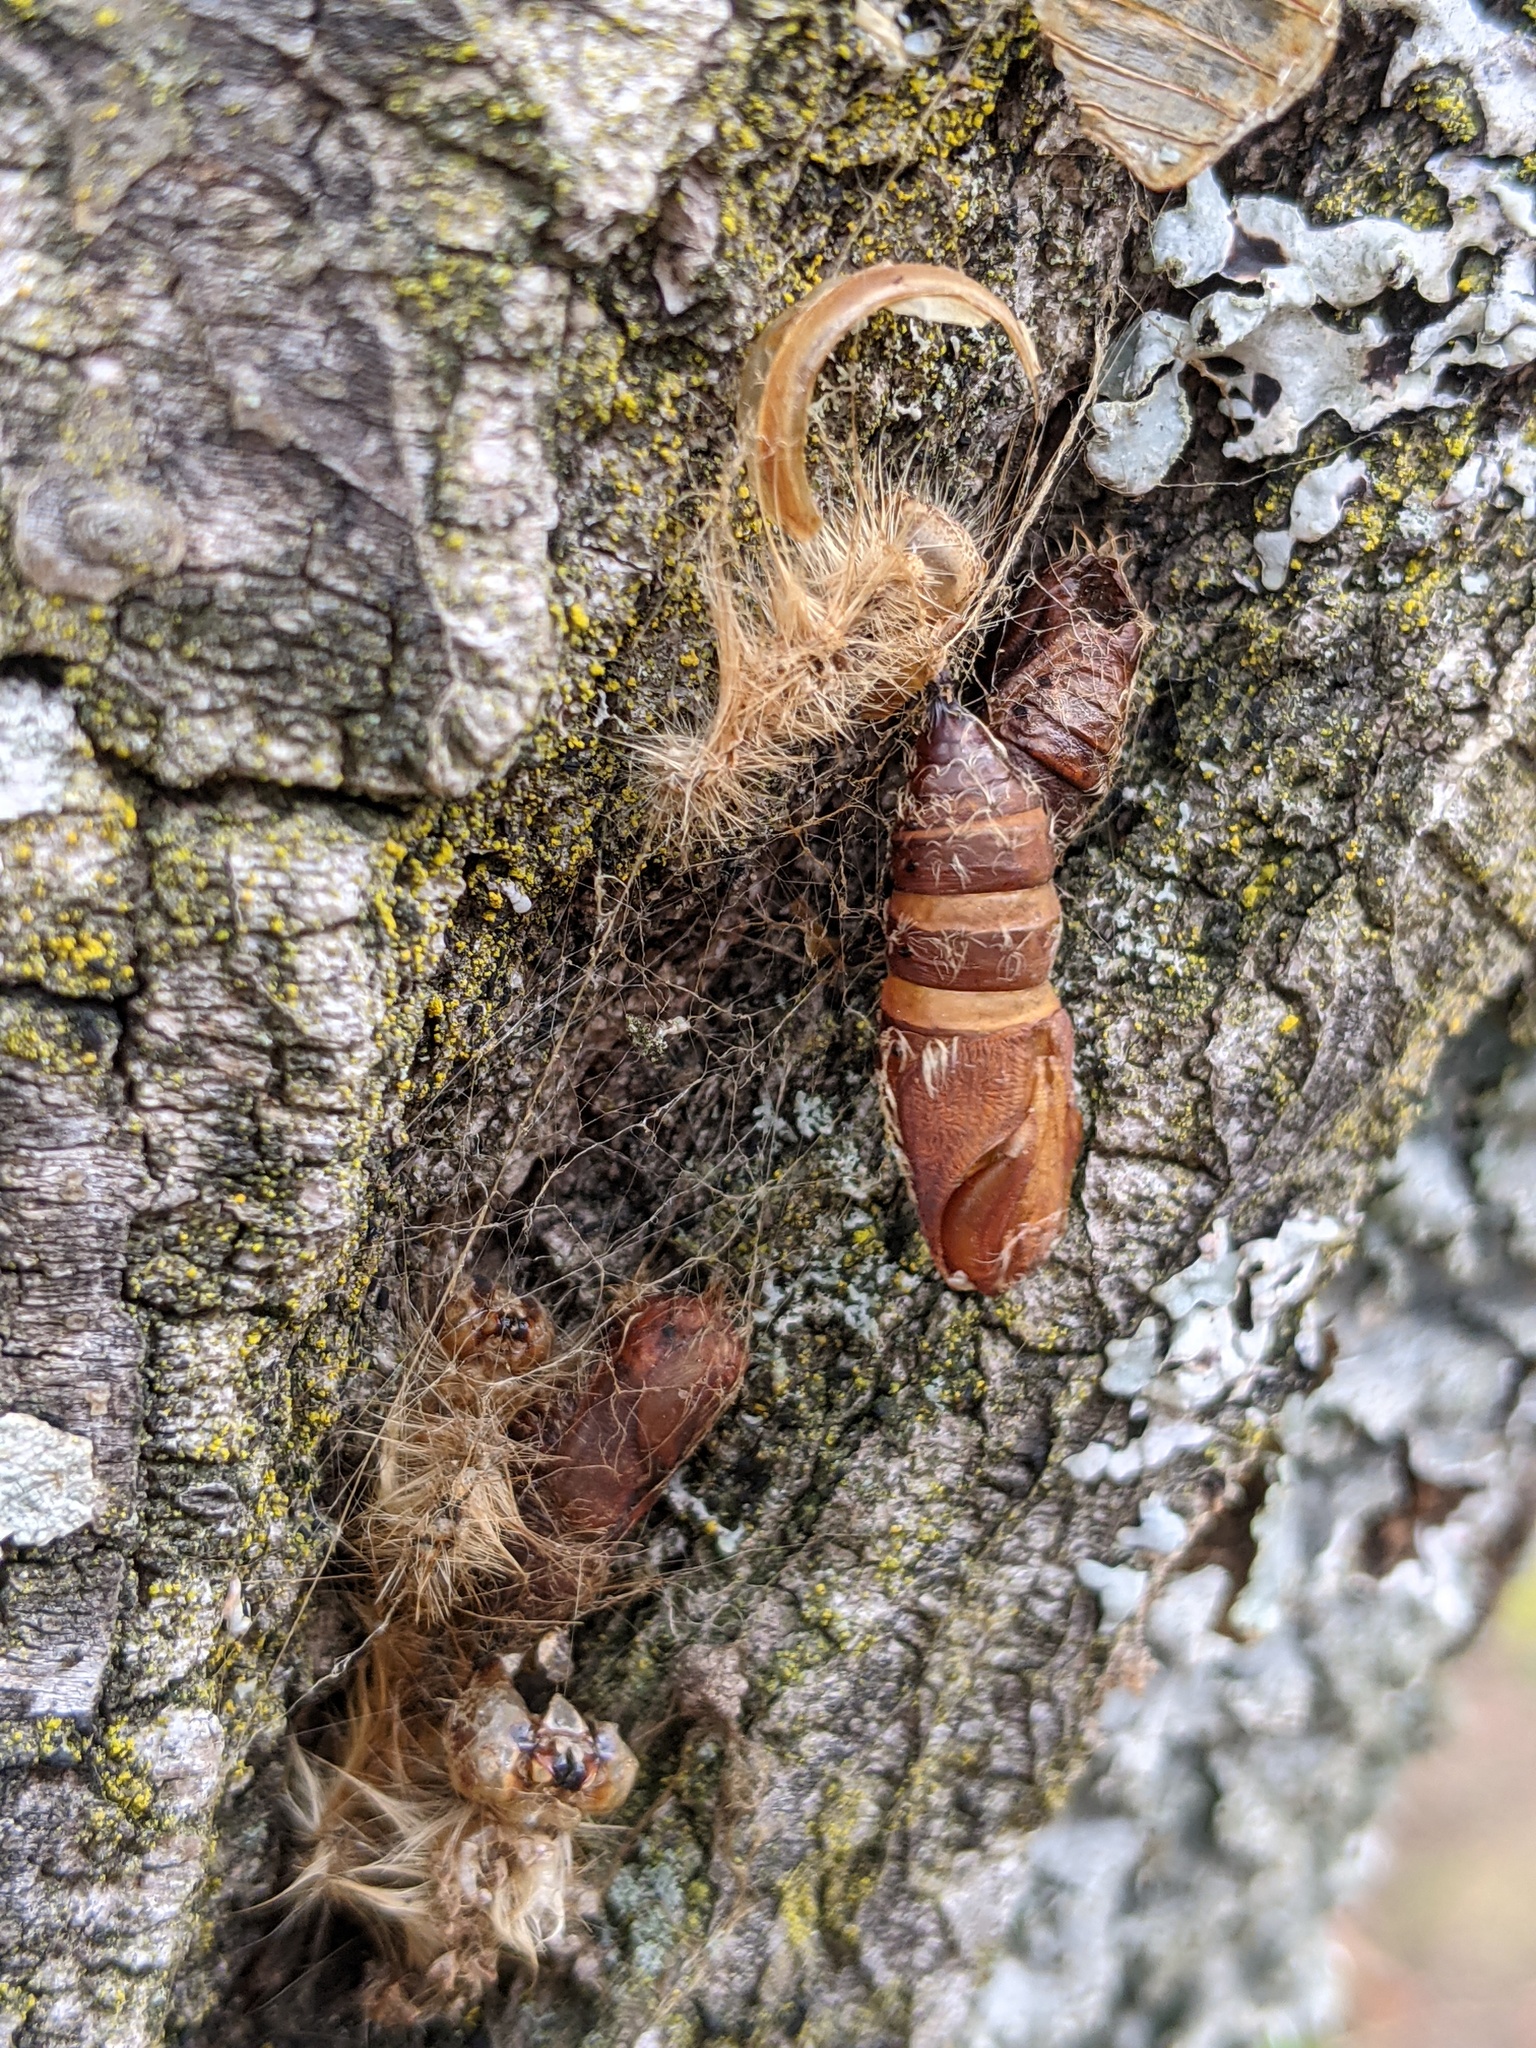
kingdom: Animalia
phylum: Arthropoda
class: Insecta
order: Lepidoptera
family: Erebidae
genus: Lymantria
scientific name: Lymantria dispar
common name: Gypsy moth
